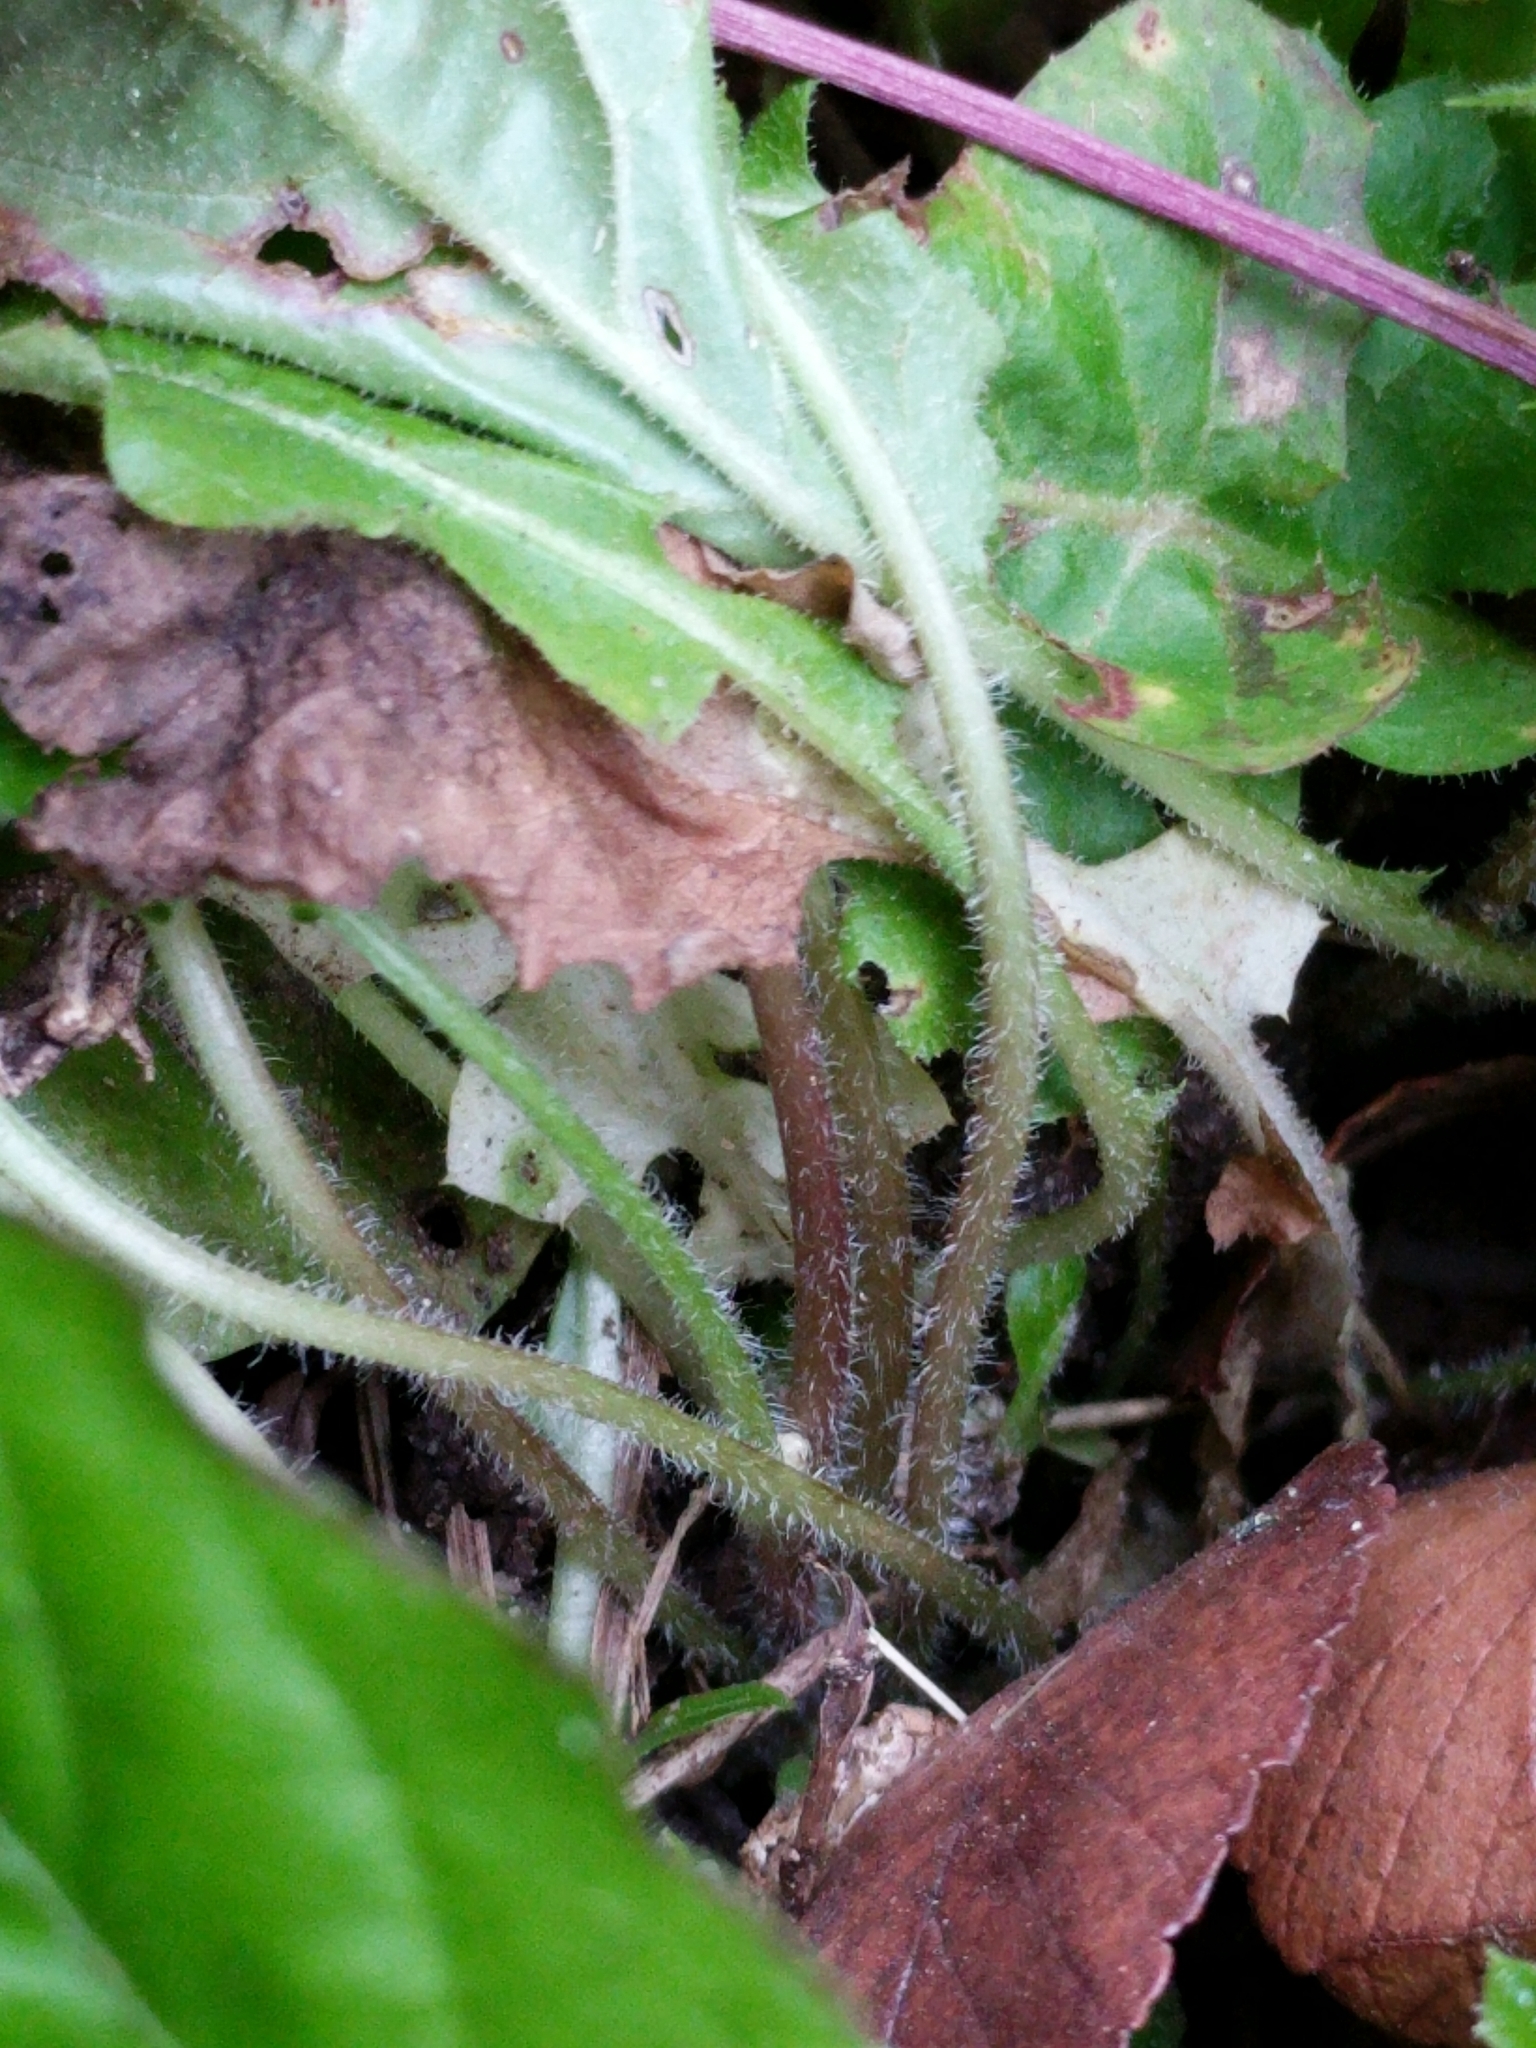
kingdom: Plantae
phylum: Tracheophyta
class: Magnoliopsida
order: Asterales
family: Asteraceae
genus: Youngia
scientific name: Youngia japonica
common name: Oriental false hawksbeard
